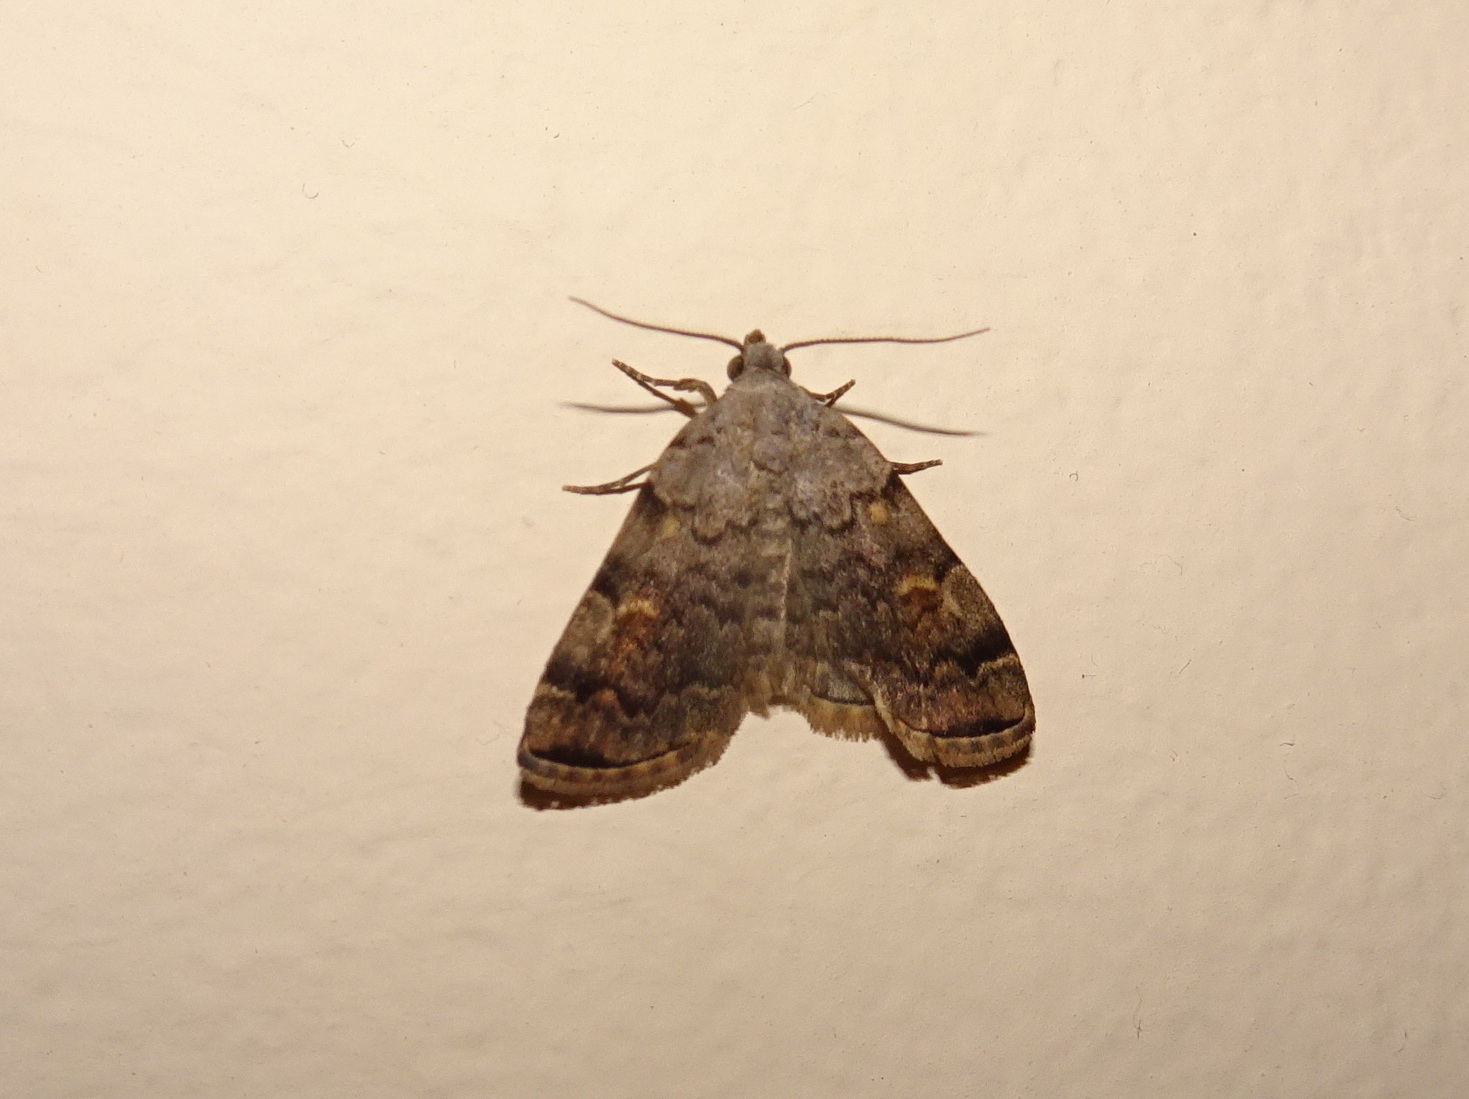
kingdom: Animalia
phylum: Arthropoda
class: Insecta
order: Lepidoptera
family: Erebidae
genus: Idia
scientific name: Idia americalis
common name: American idia moth
